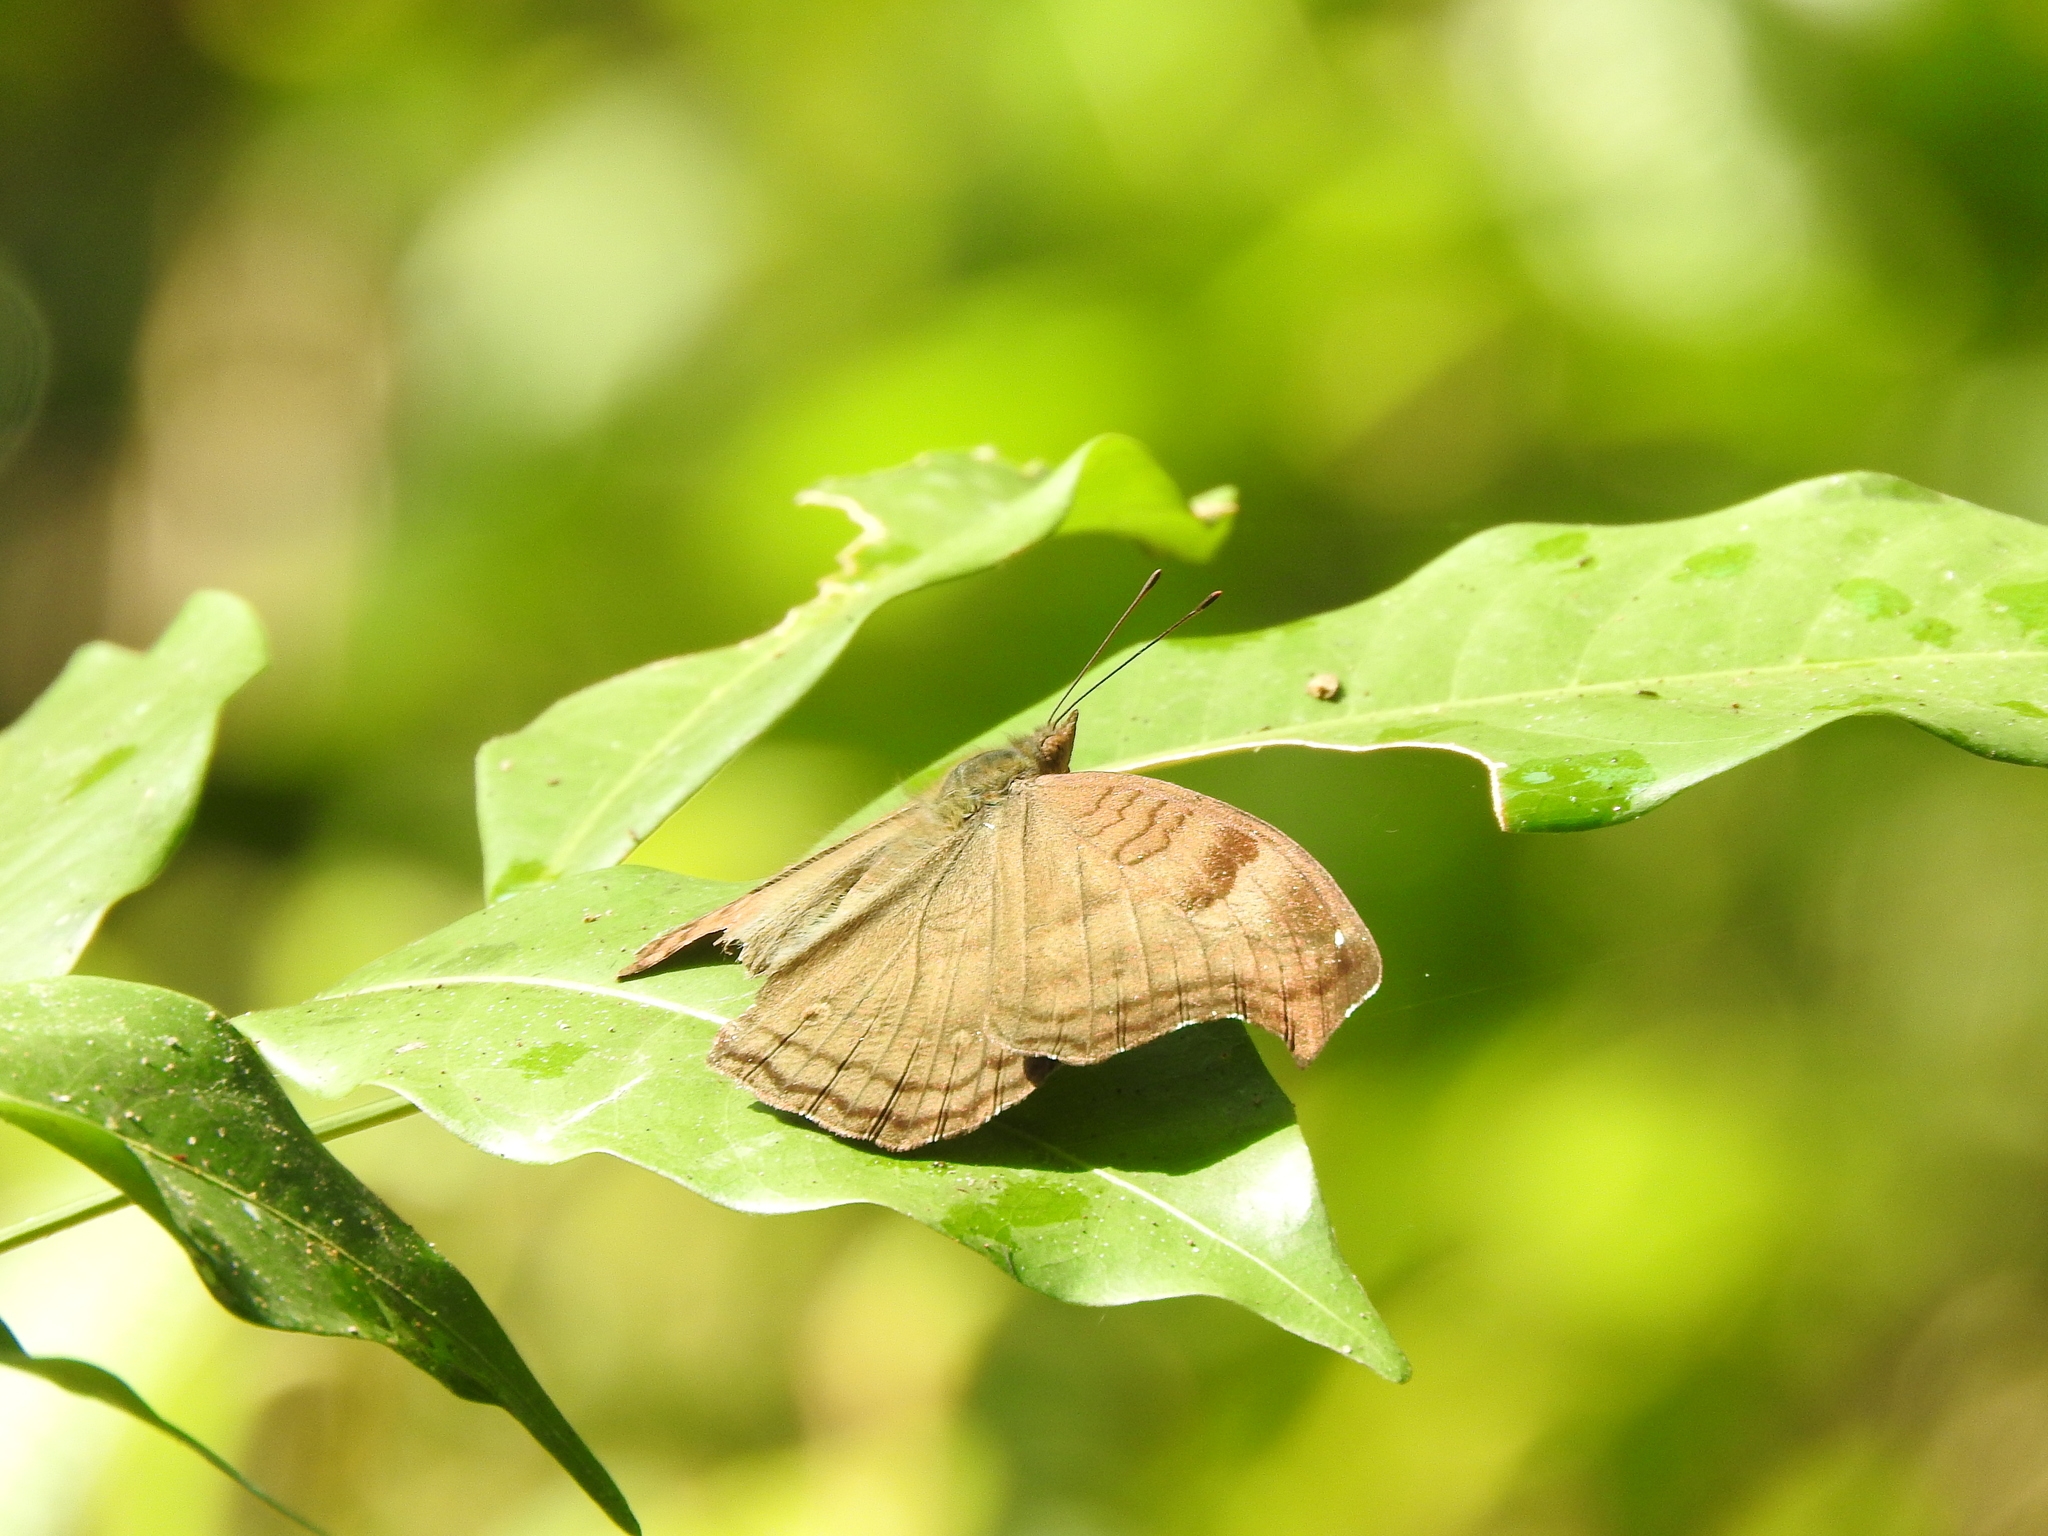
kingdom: Animalia
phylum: Arthropoda
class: Insecta
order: Lepidoptera
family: Nymphalidae
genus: Junonia
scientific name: Junonia iphita
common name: Chocolate pansy
